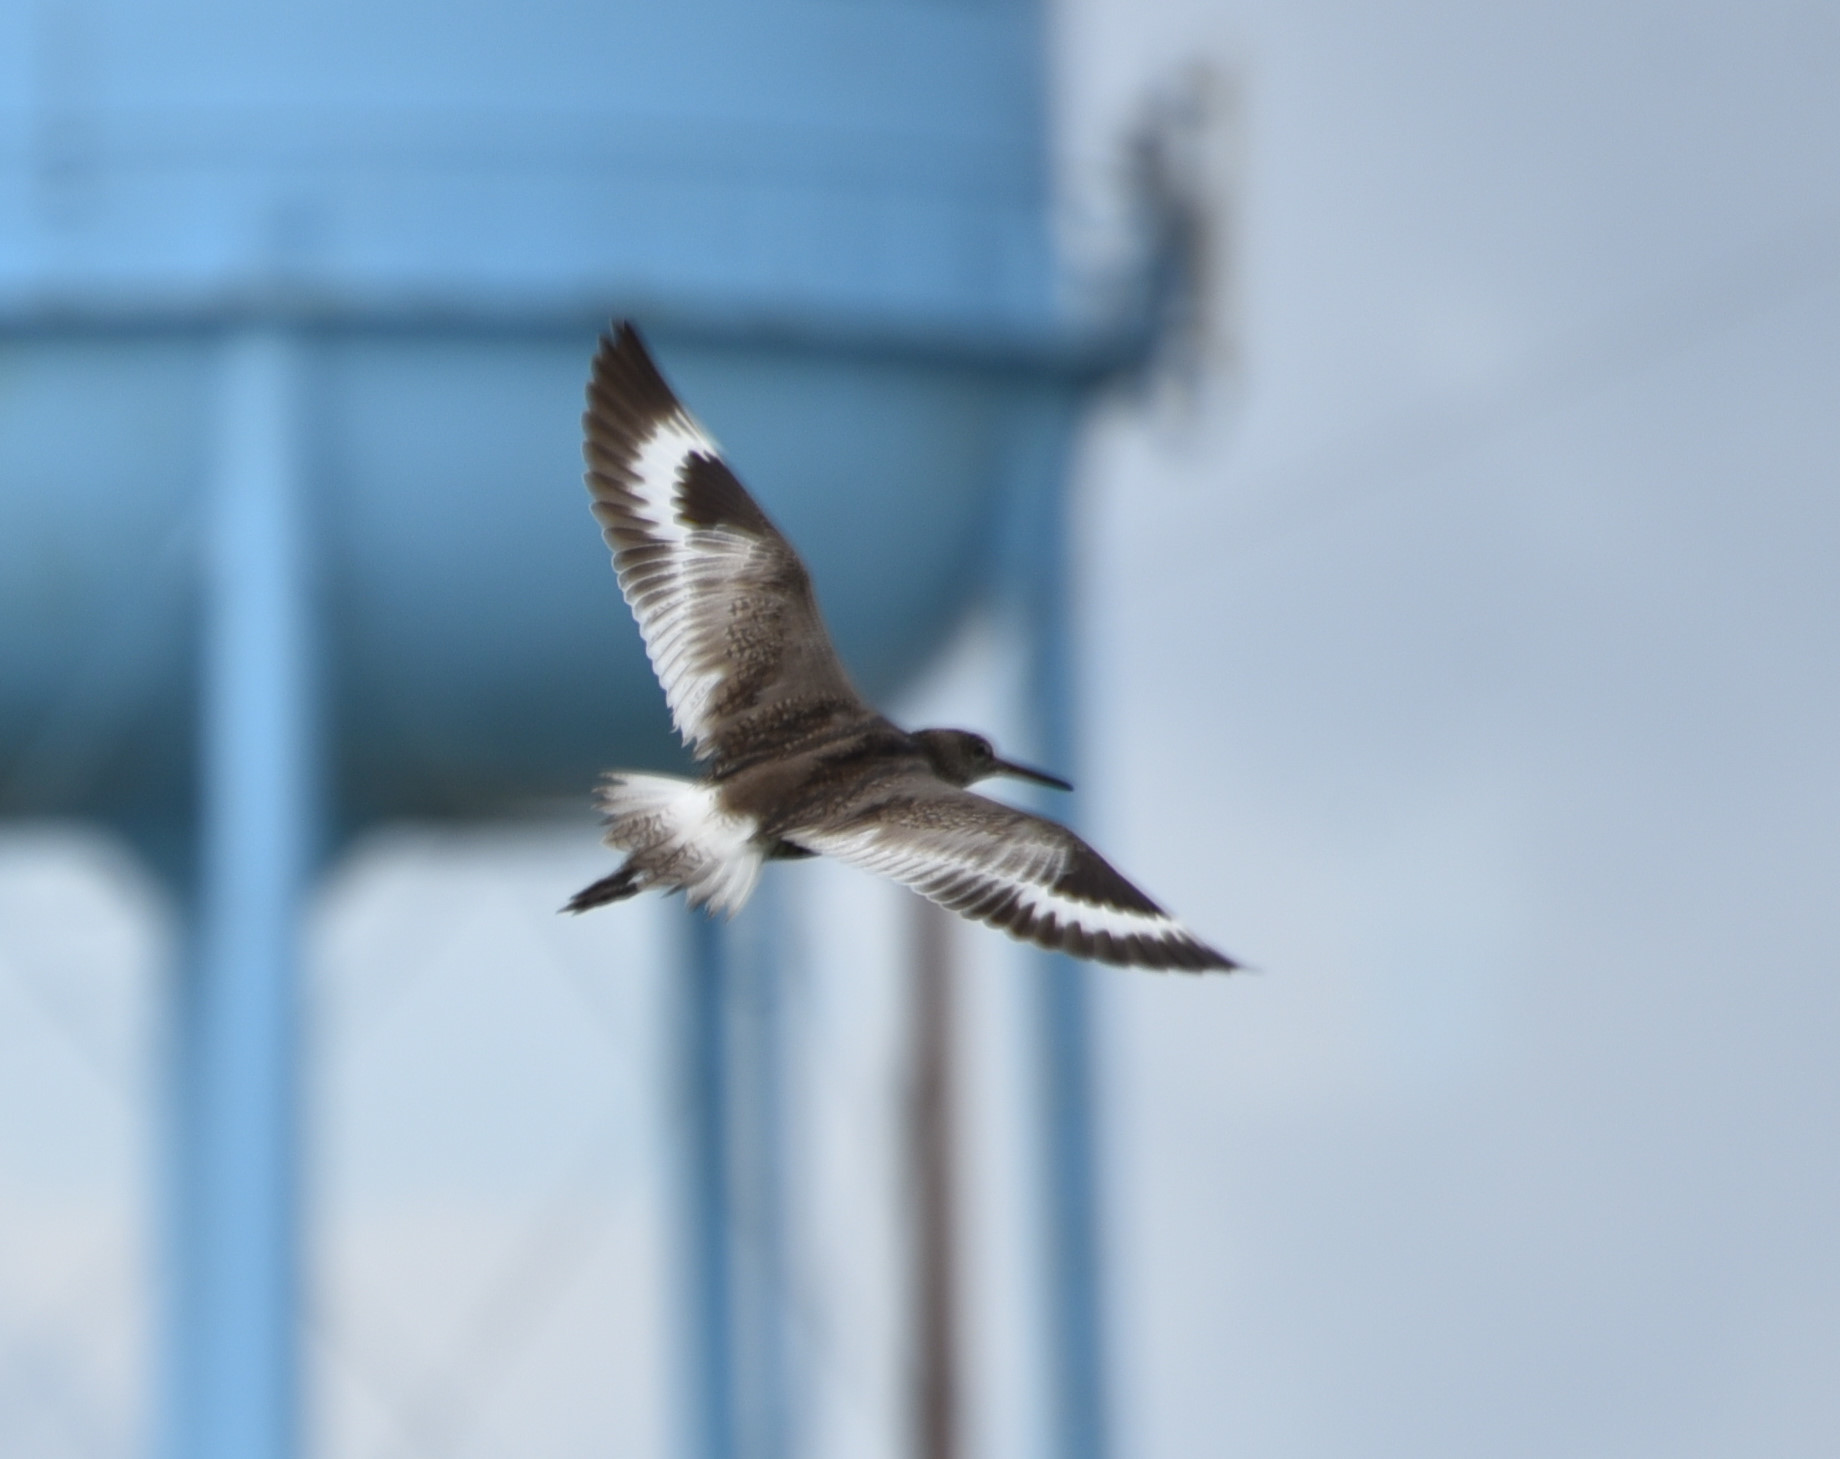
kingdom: Animalia
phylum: Chordata
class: Aves
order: Charadriiformes
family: Scolopacidae
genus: Tringa
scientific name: Tringa semipalmata
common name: Willet
